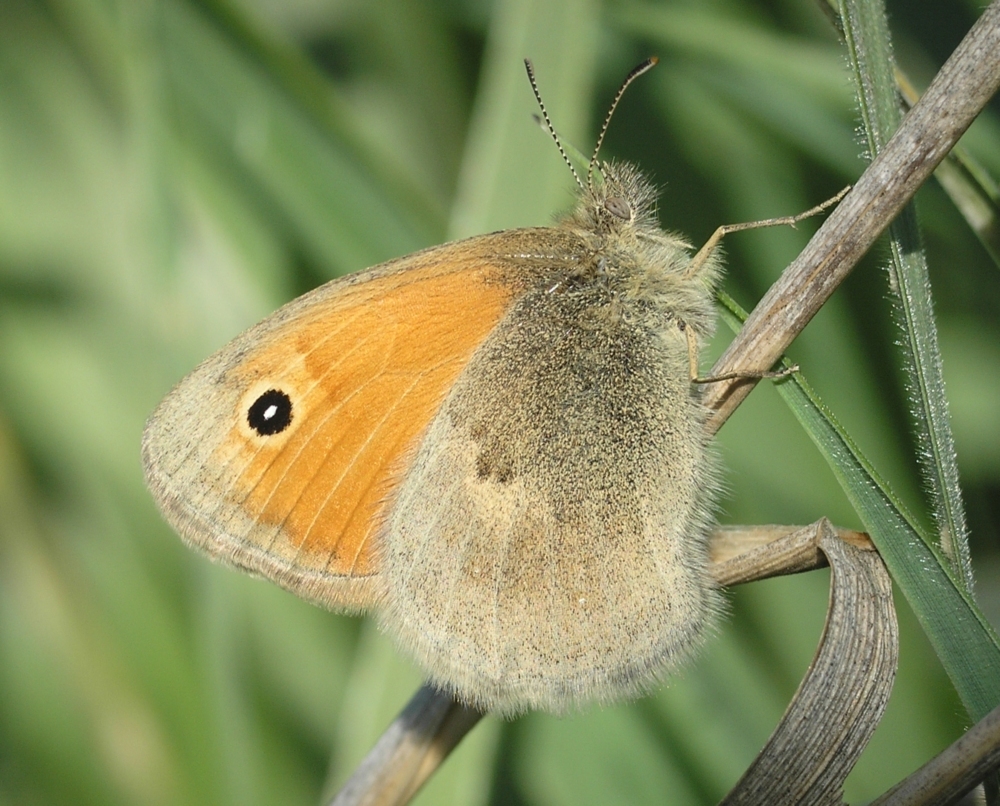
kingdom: Animalia
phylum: Arthropoda
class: Insecta
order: Lepidoptera
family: Nymphalidae
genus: Coenonympha
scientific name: Coenonympha pamphilus
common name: Small heath
